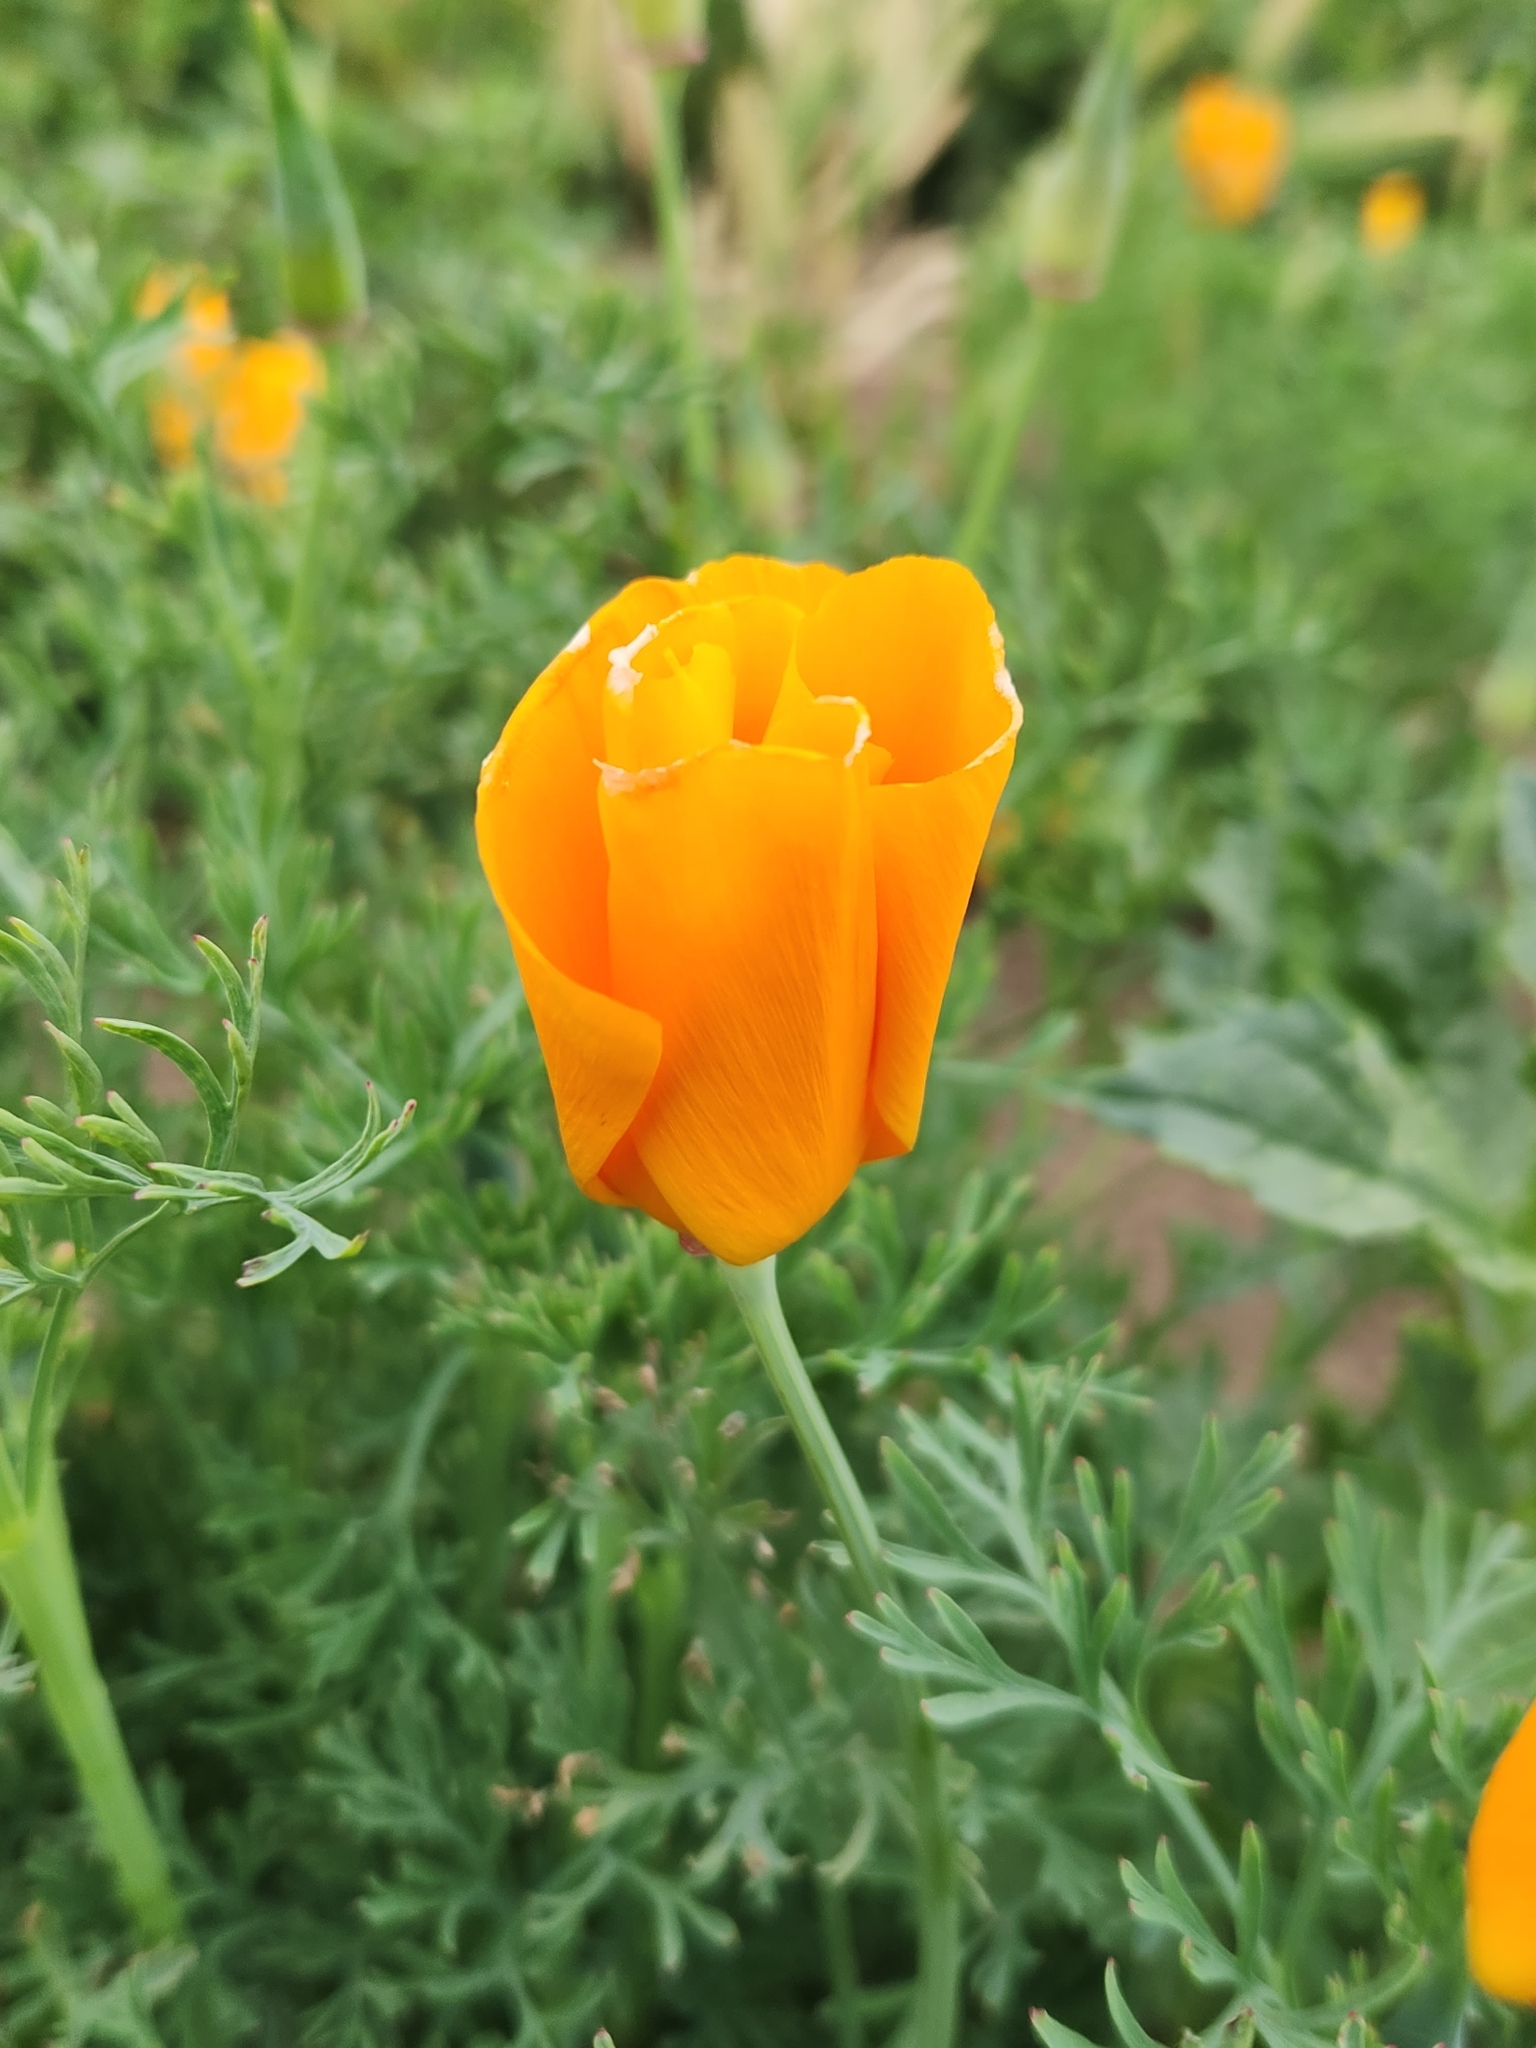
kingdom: Plantae
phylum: Tracheophyta
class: Magnoliopsida
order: Ranunculales
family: Papaveraceae
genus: Eschscholzia
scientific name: Eschscholzia californica
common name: California poppy
